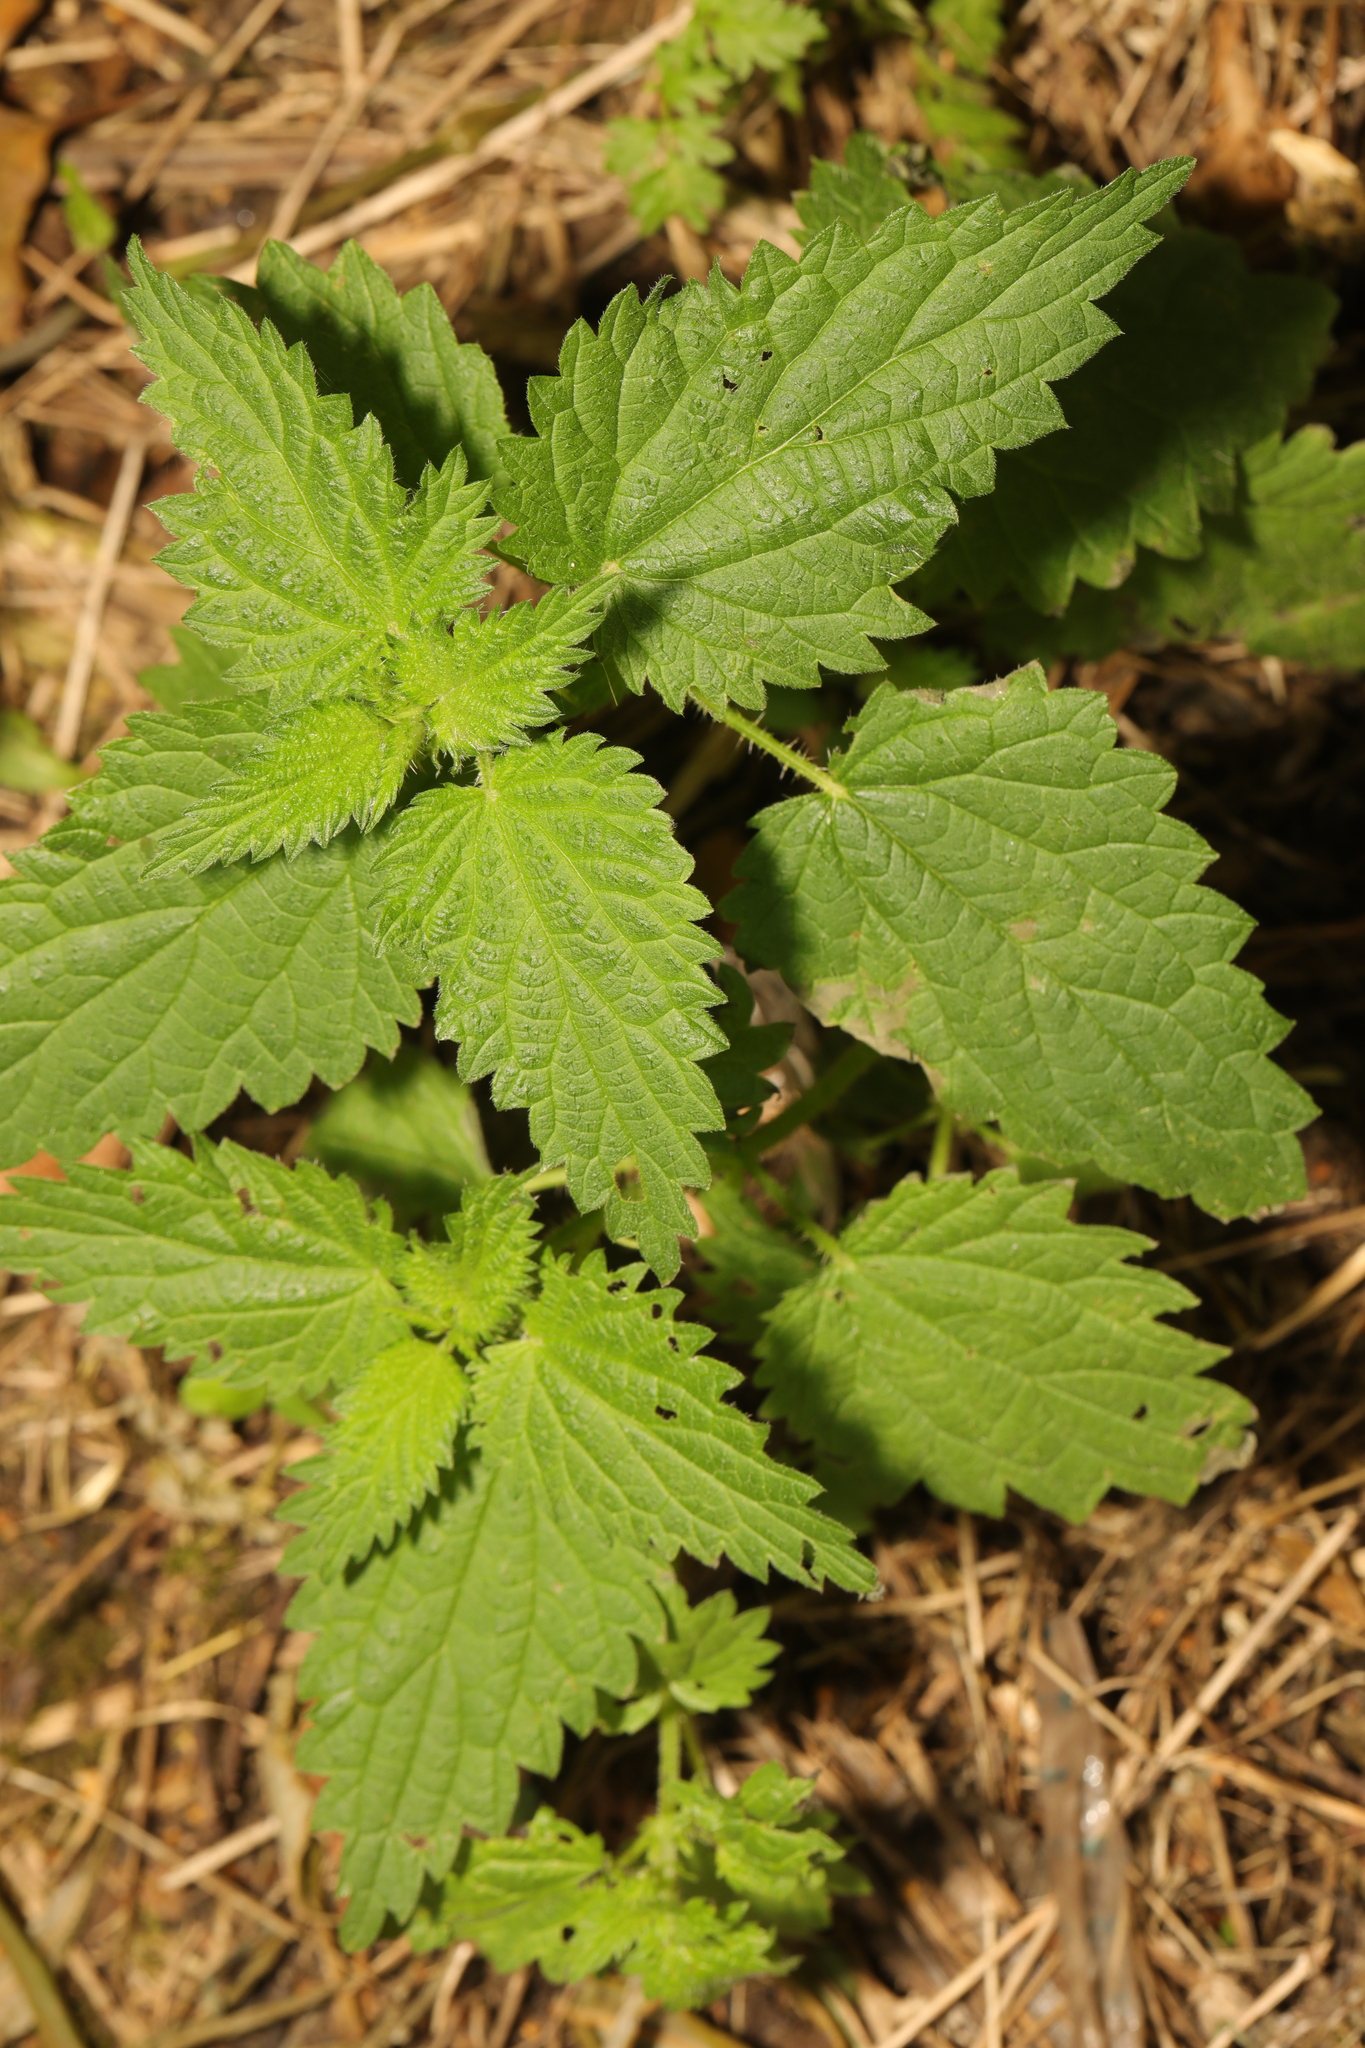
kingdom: Plantae
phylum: Tracheophyta
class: Magnoliopsida
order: Rosales
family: Urticaceae
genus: Urtica
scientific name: Urtica dioica
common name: Common nettle
